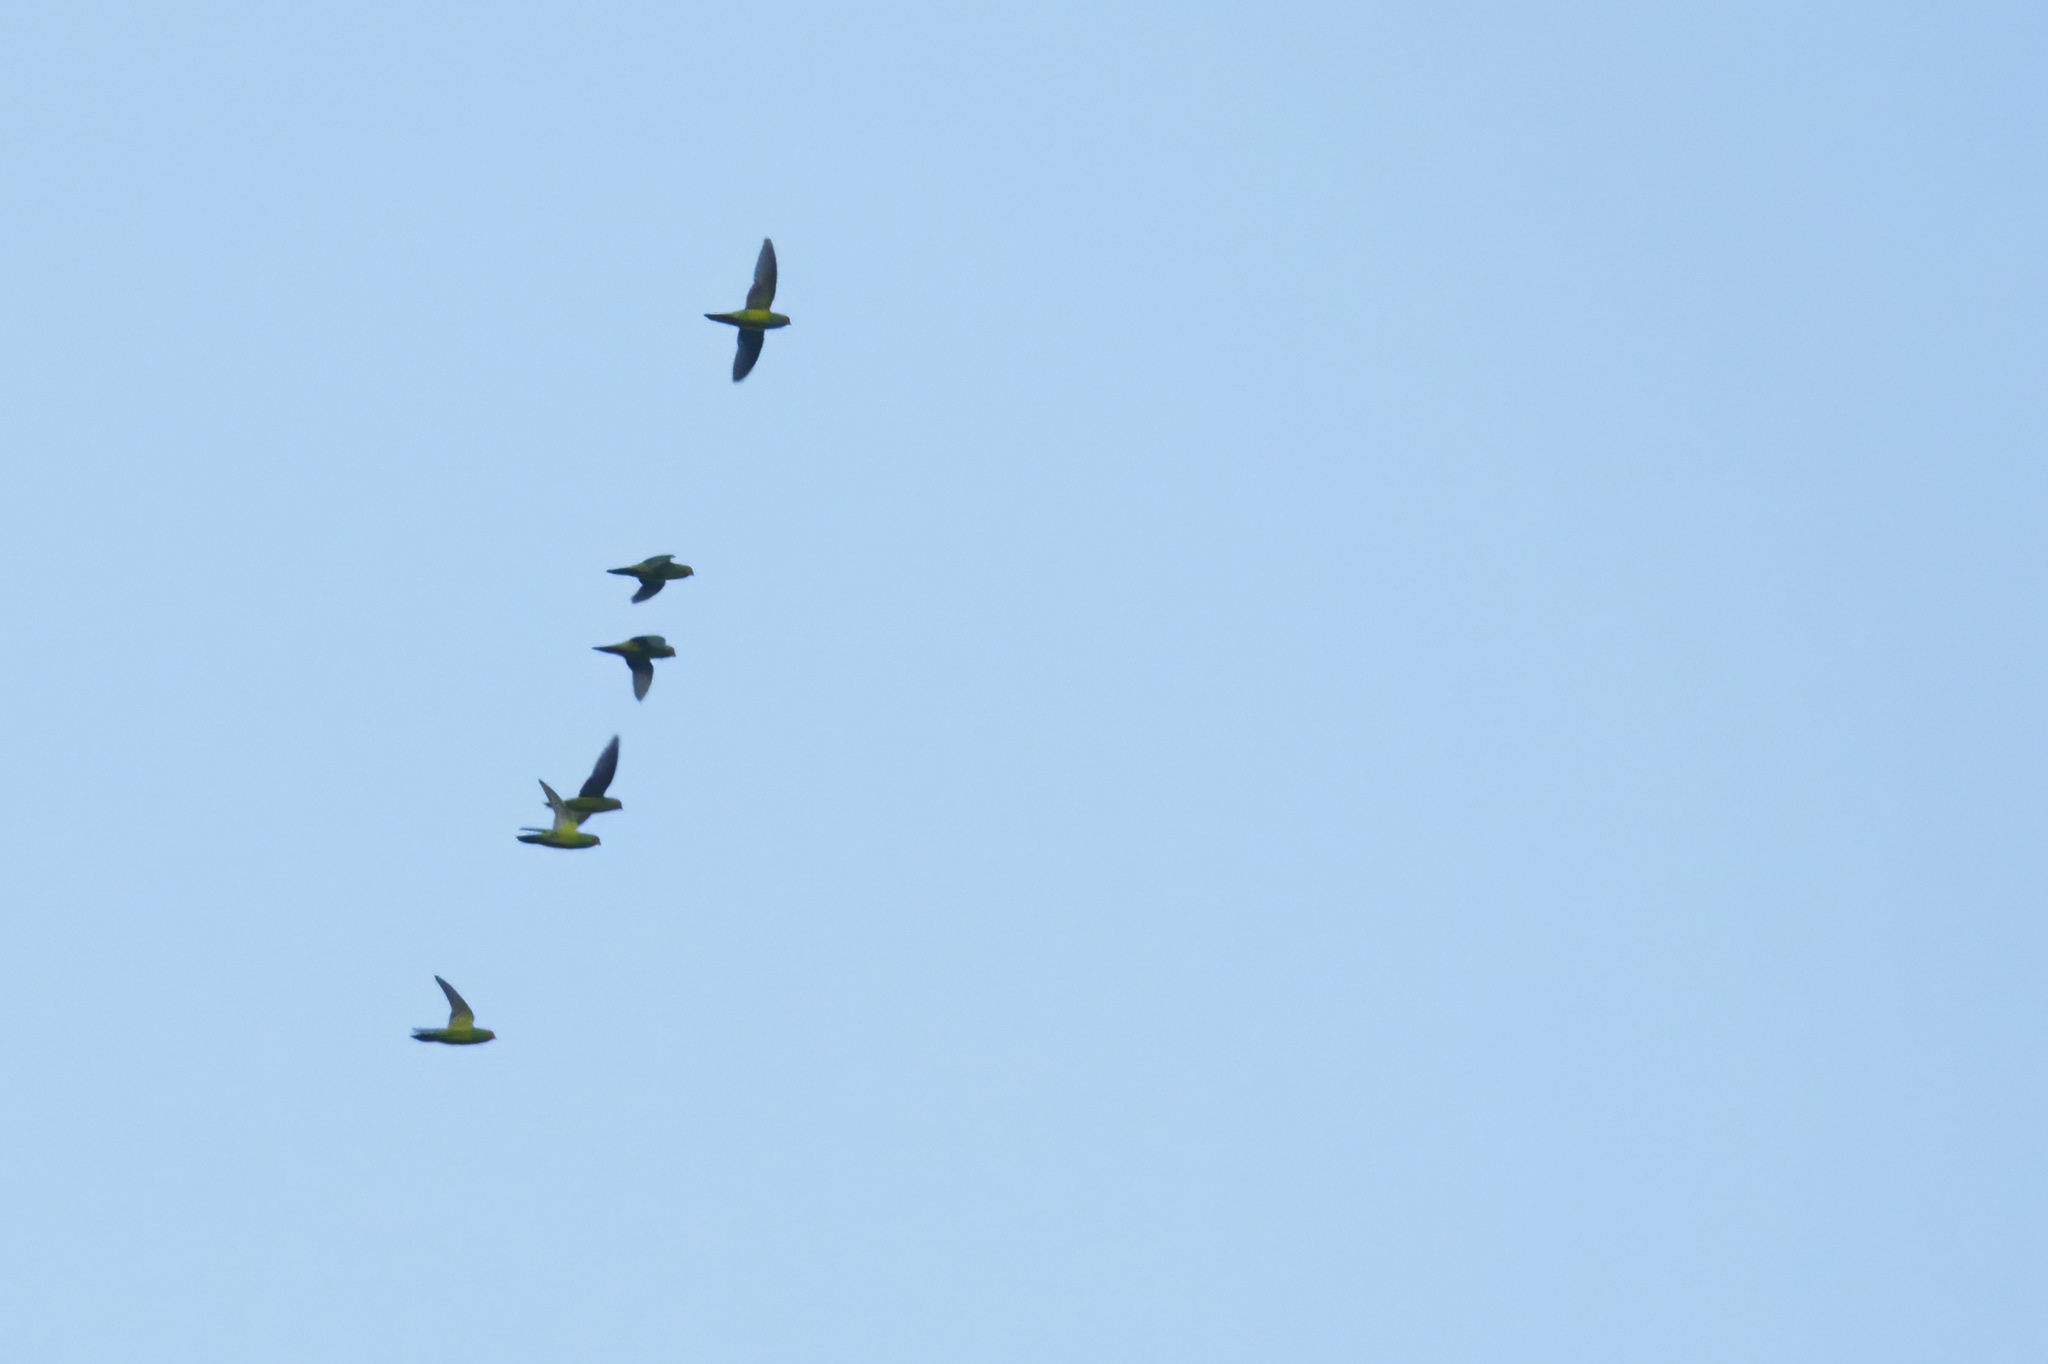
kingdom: Animalia
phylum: Chordata
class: Aves
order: Psittaciformes
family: Psittaculidae
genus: Parvipsitta
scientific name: Parvipsitta pusilla
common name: Little lorikeet
